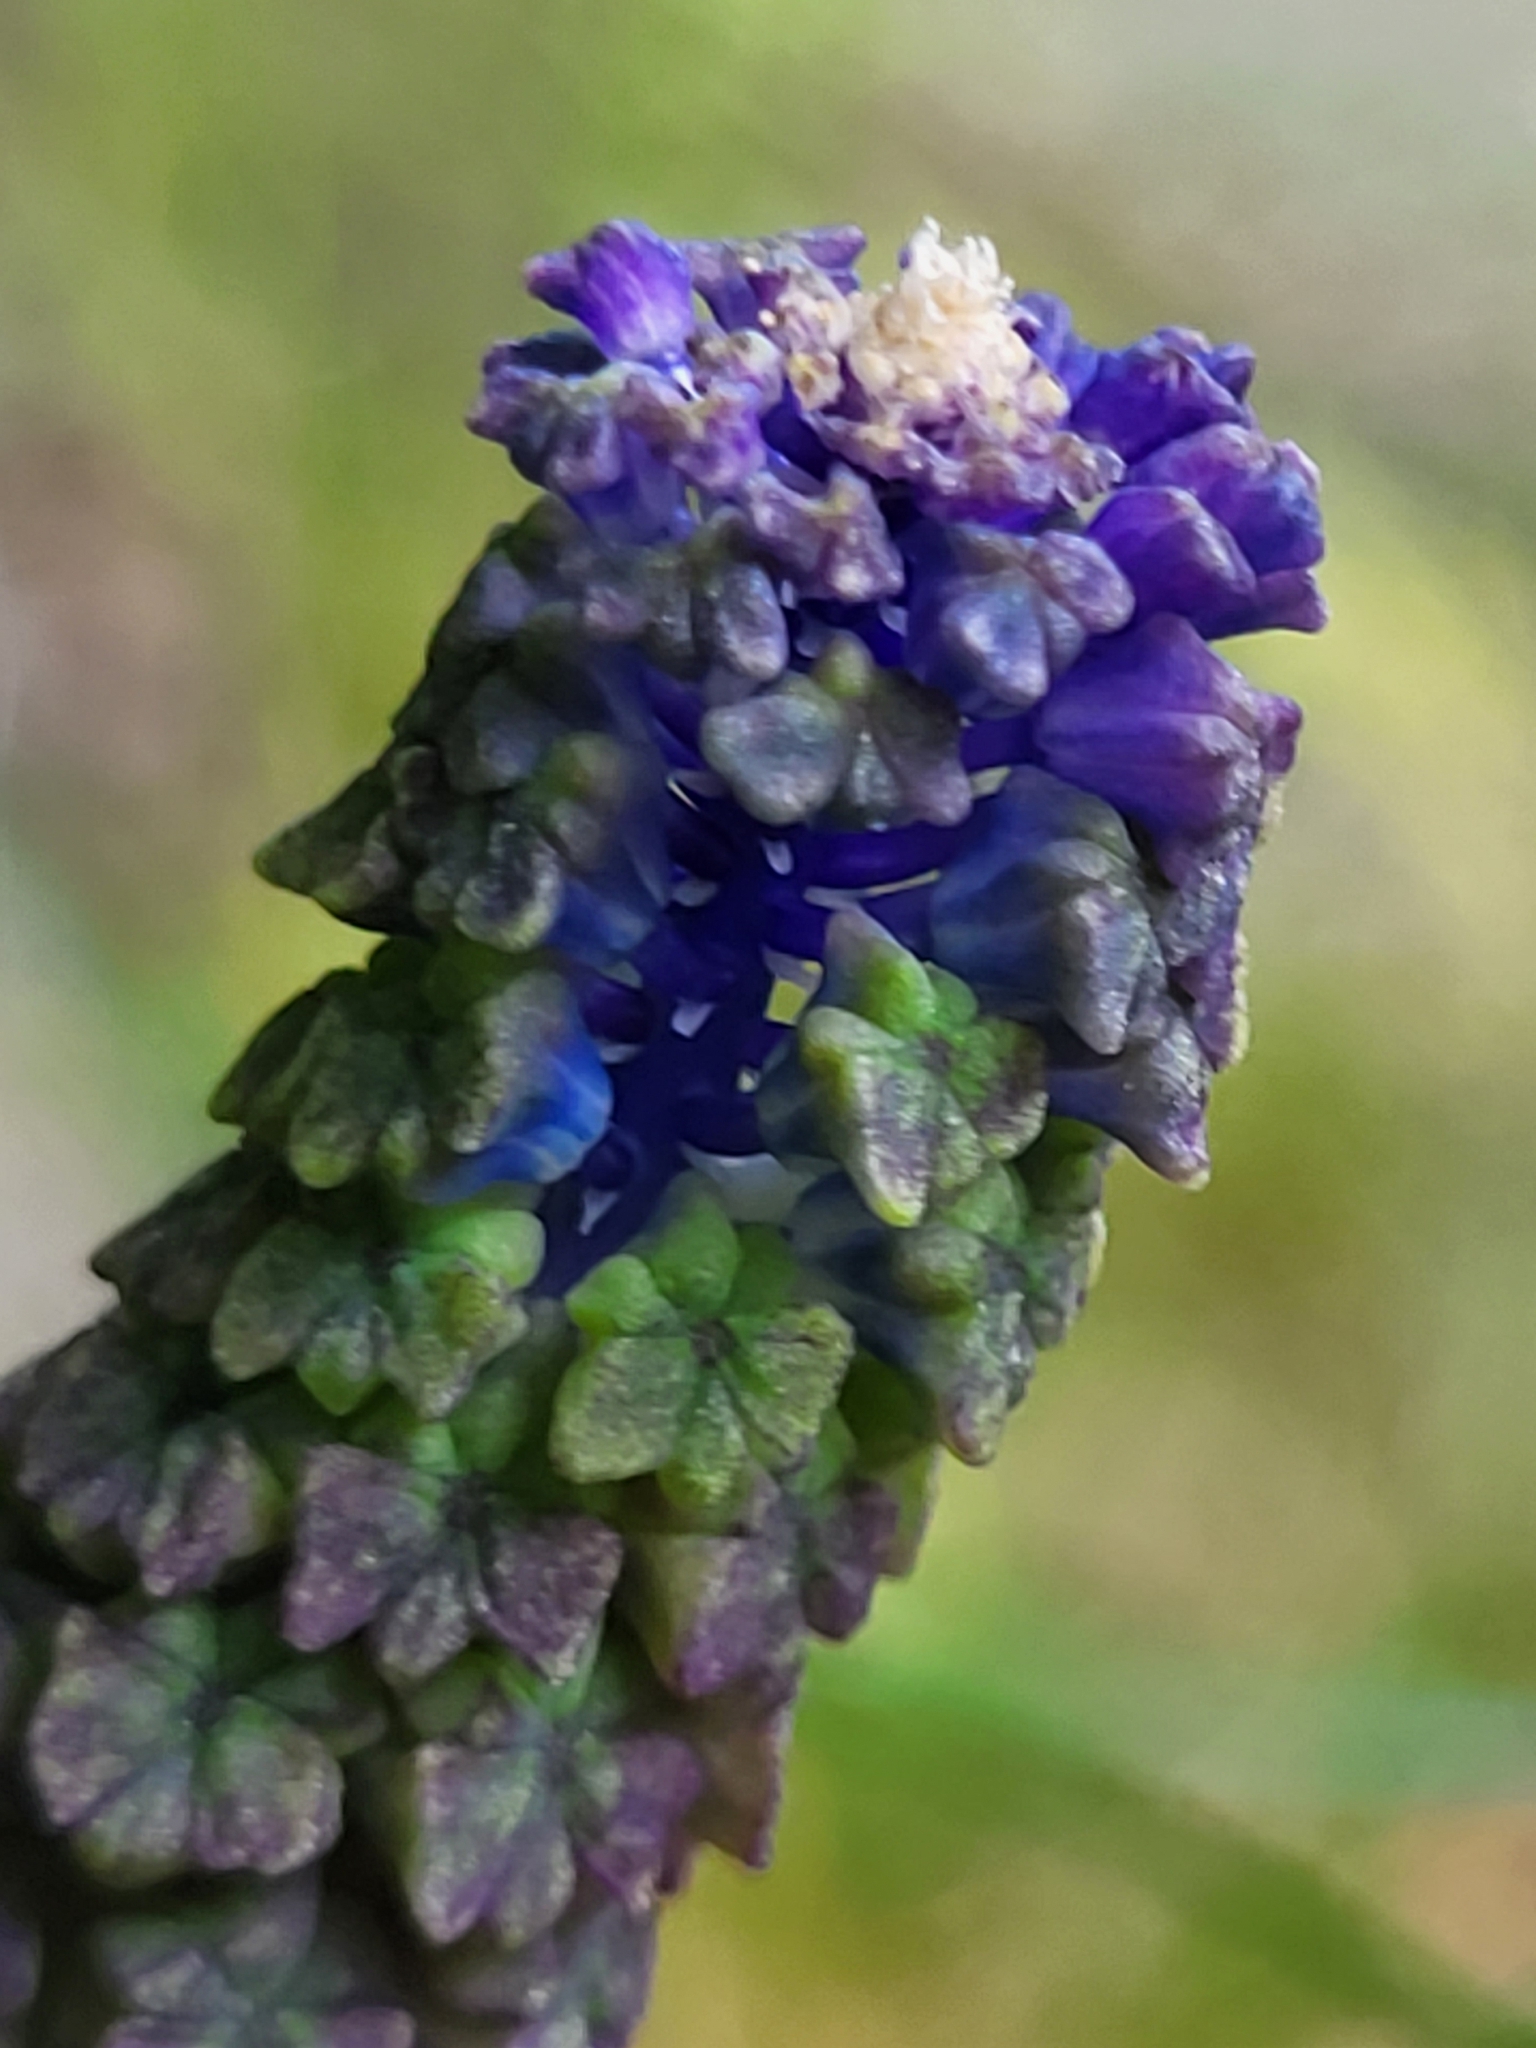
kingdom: Plantae
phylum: Tracheophyta
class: Liliopsida
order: Asparagales
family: Asparagaceae
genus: Muscari
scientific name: Muscari comosum
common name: Tassel hyacinth
